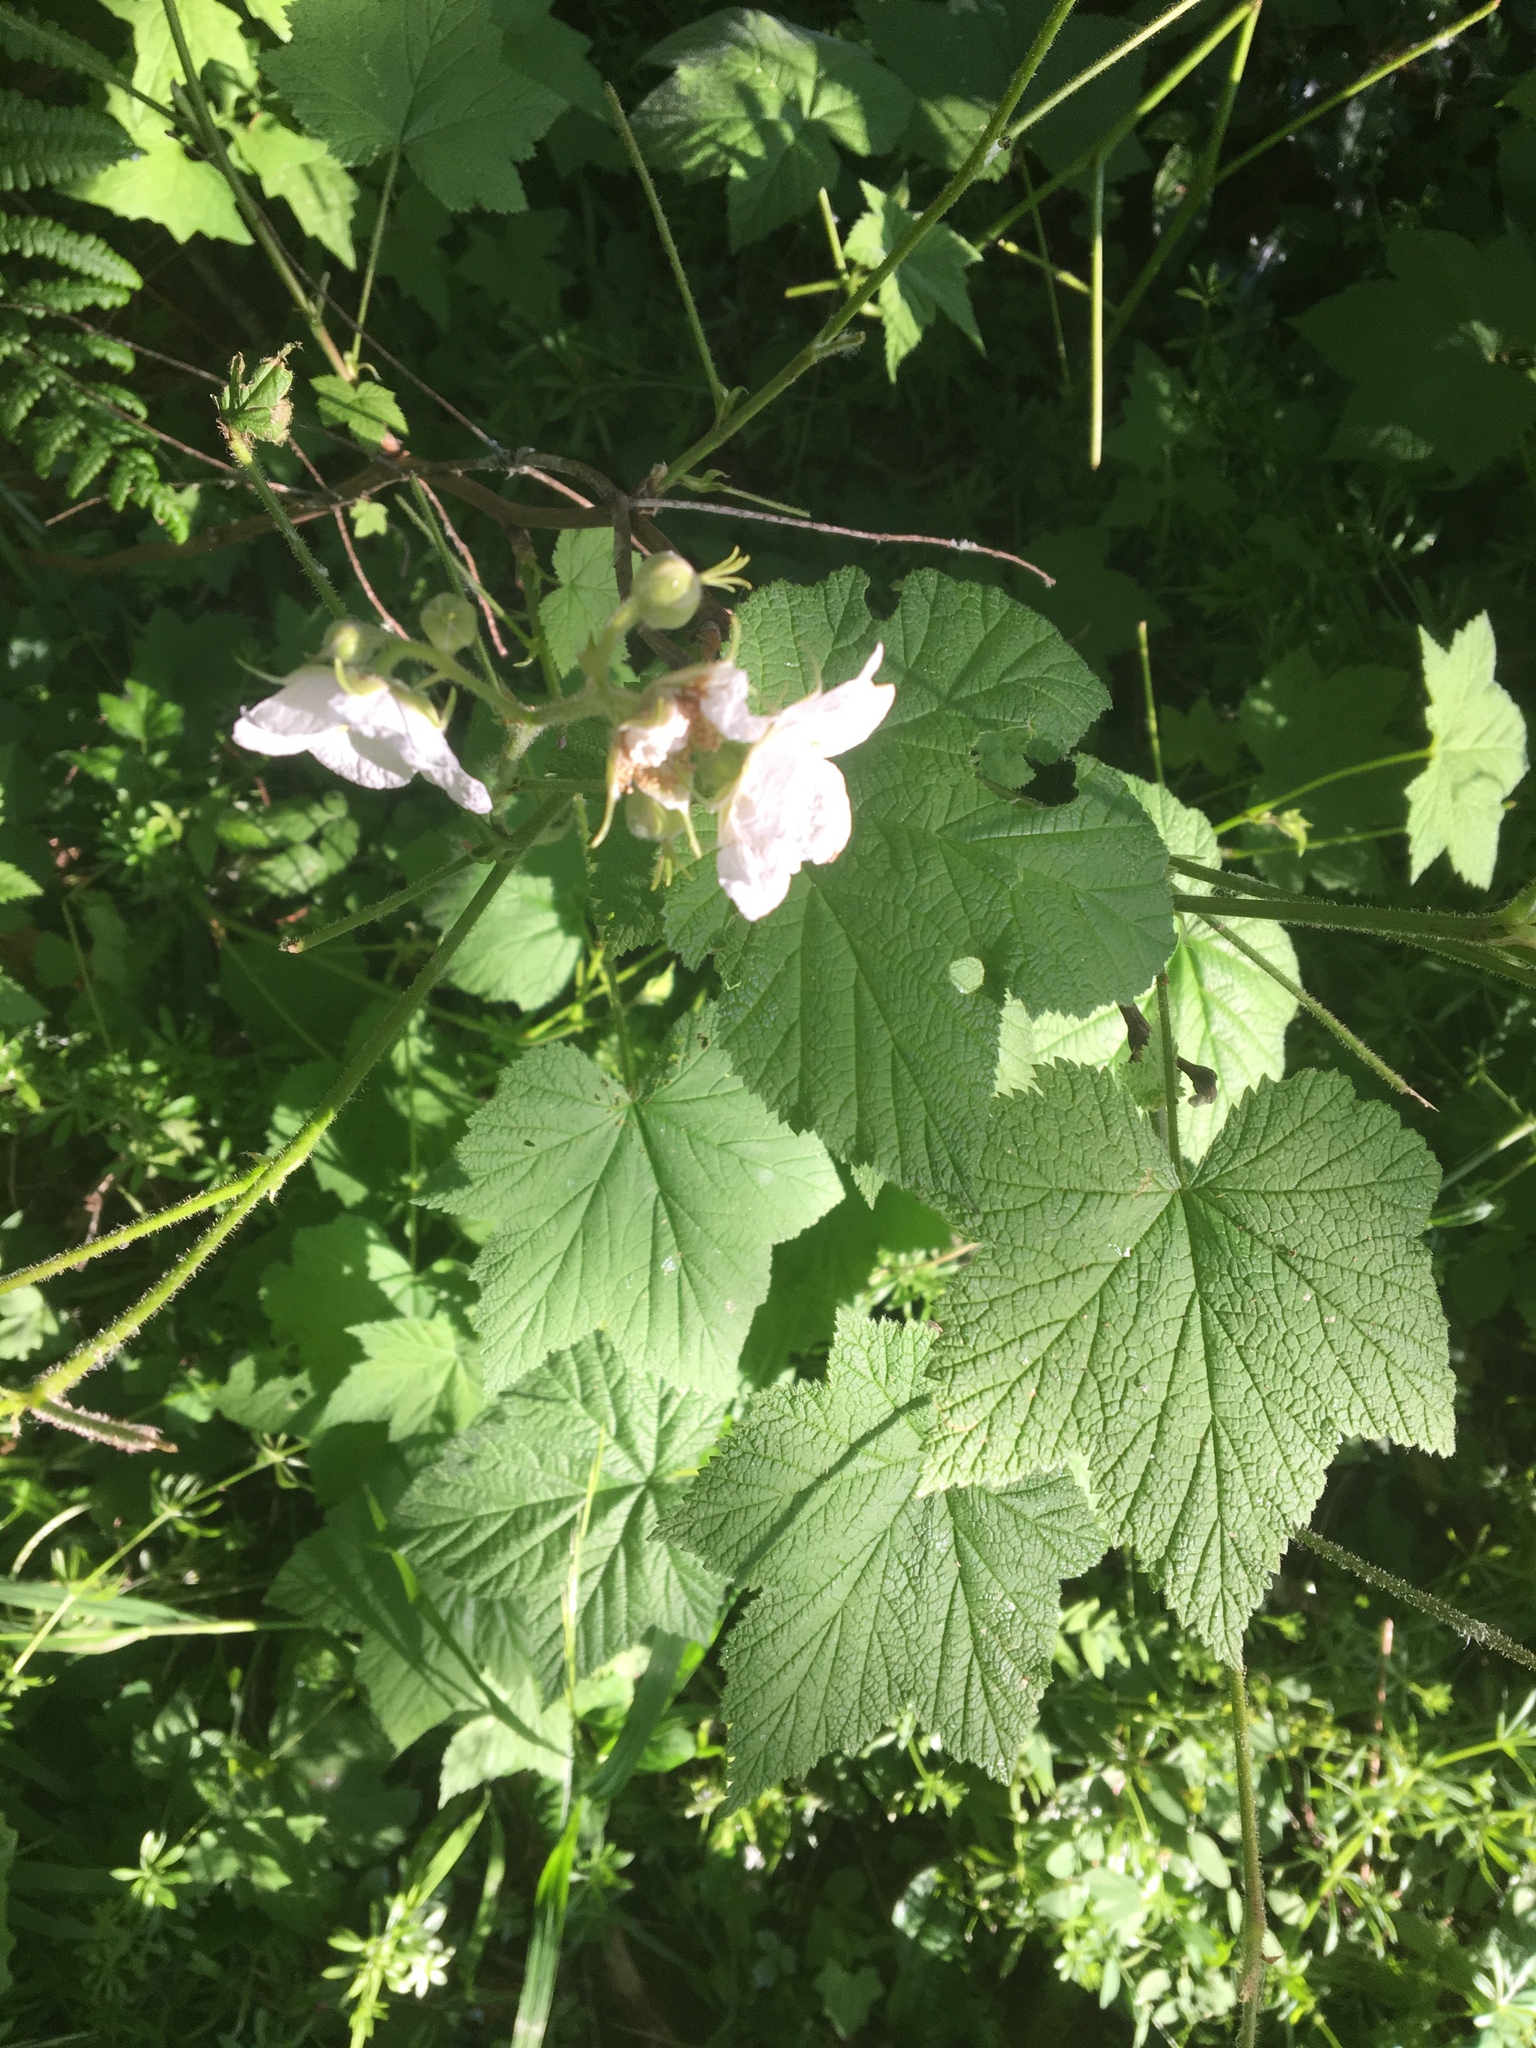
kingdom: Plantae
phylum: Tracheophyta
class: Magnoliopsida
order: Rosales
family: Rosaceae
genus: Rubus
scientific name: Rubus parviflorus
